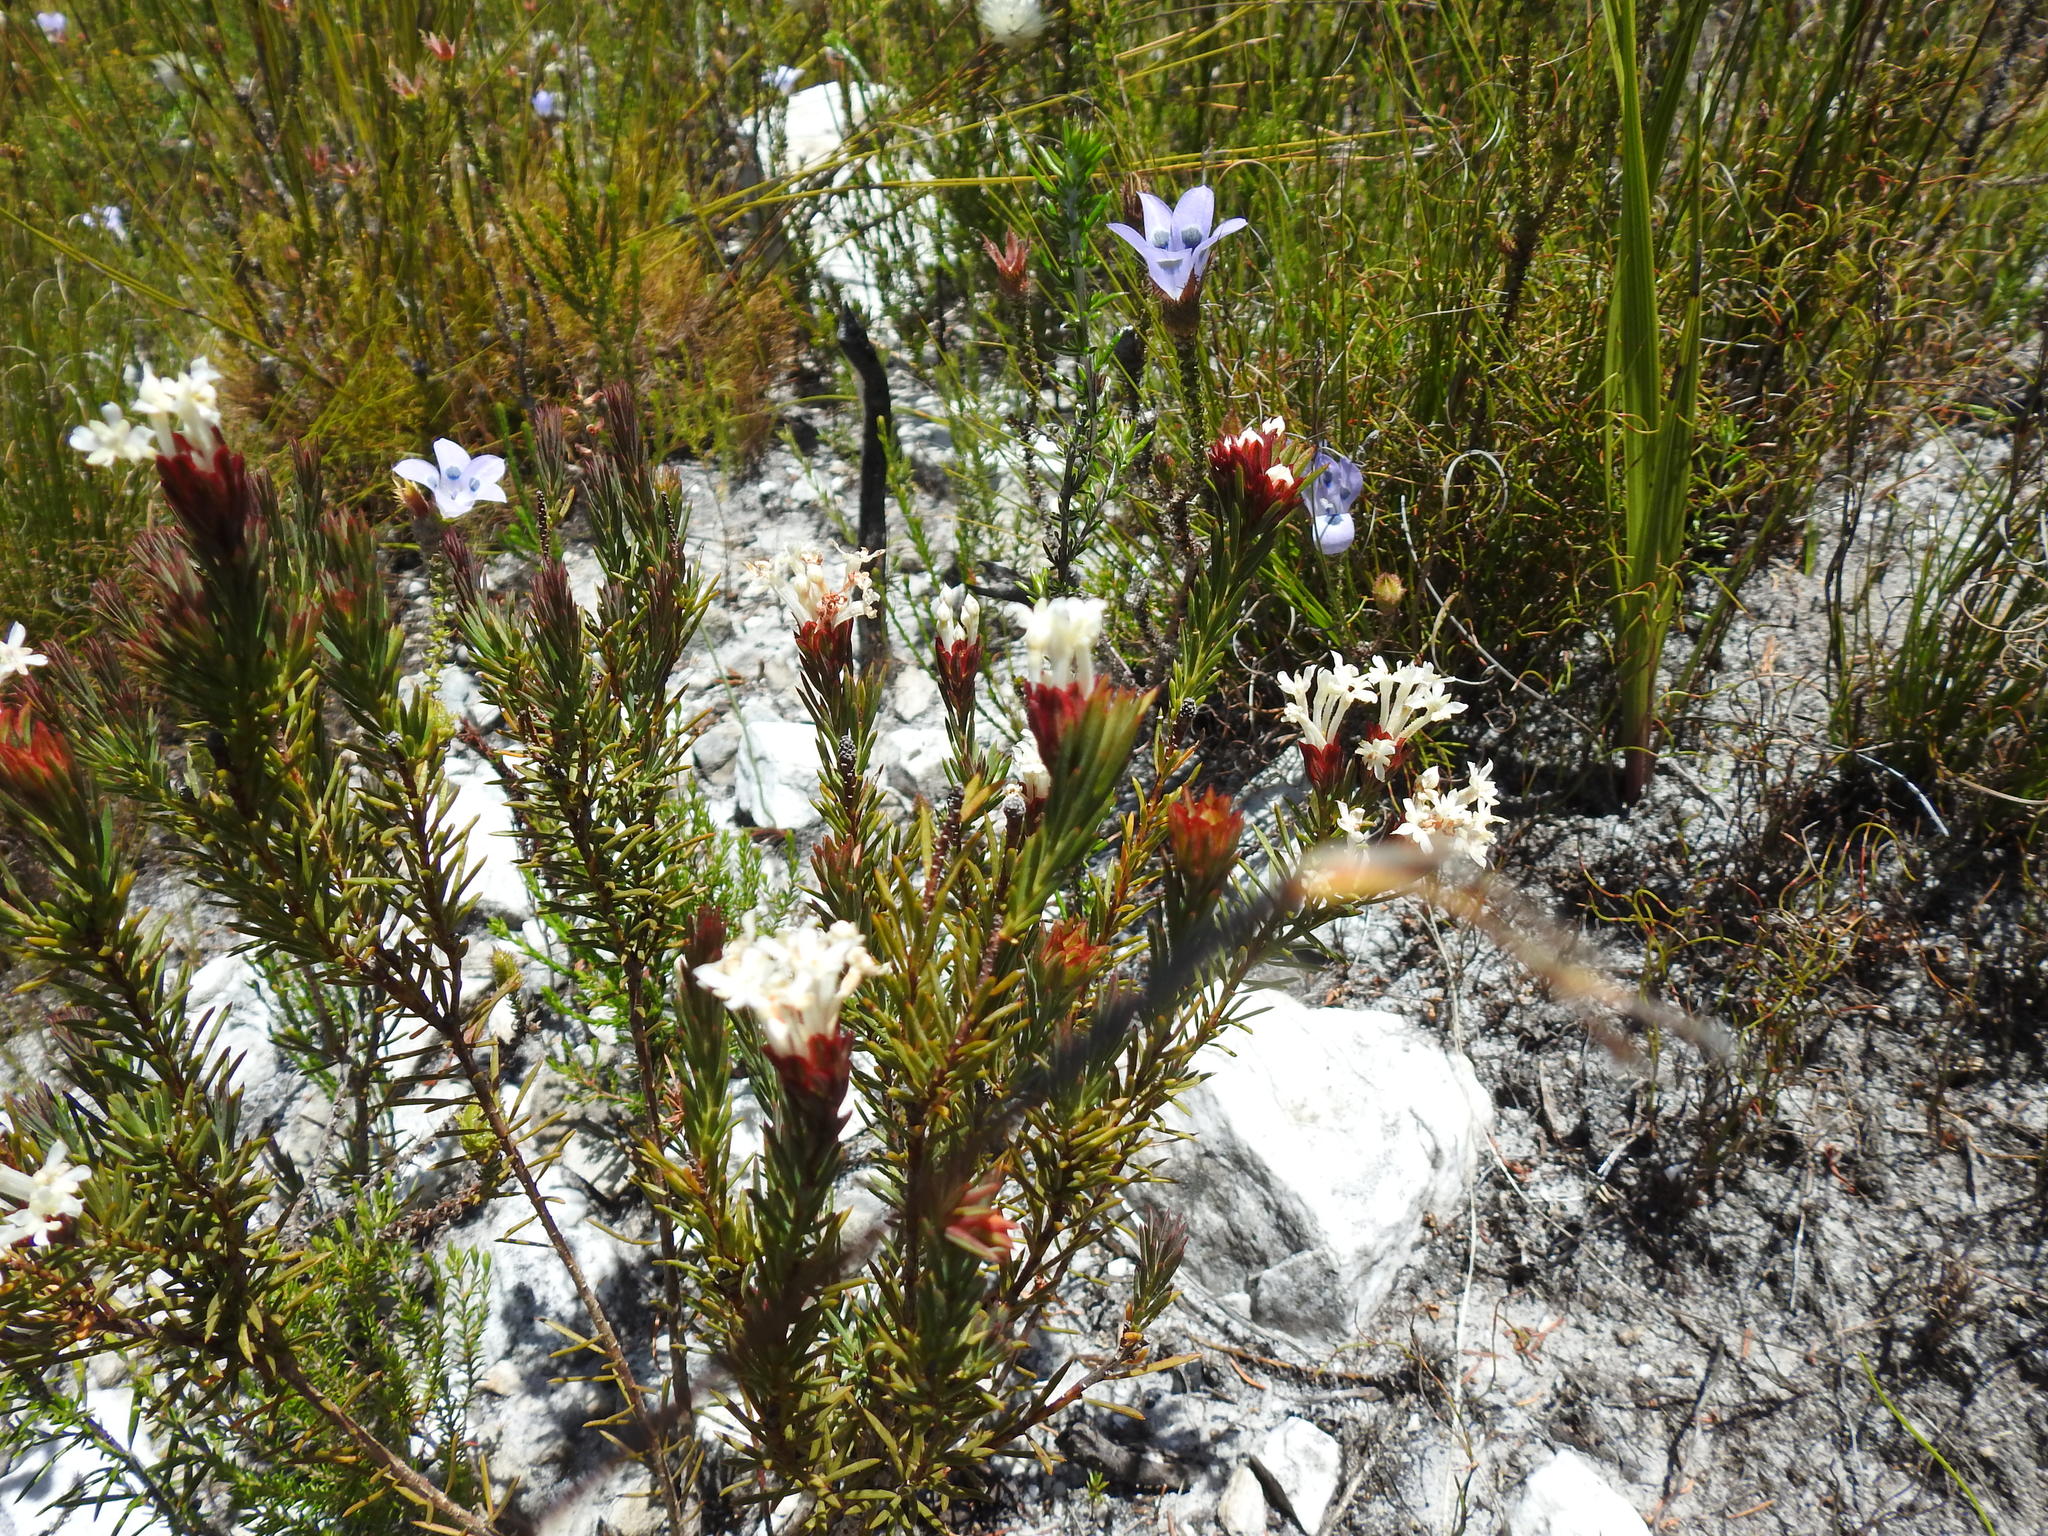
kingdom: Plantae
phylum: Tracheophyta
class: Magnoliopsida
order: Malvales
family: Thymelaeaceae
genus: Gnidia
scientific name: Gnidia pinifolia
